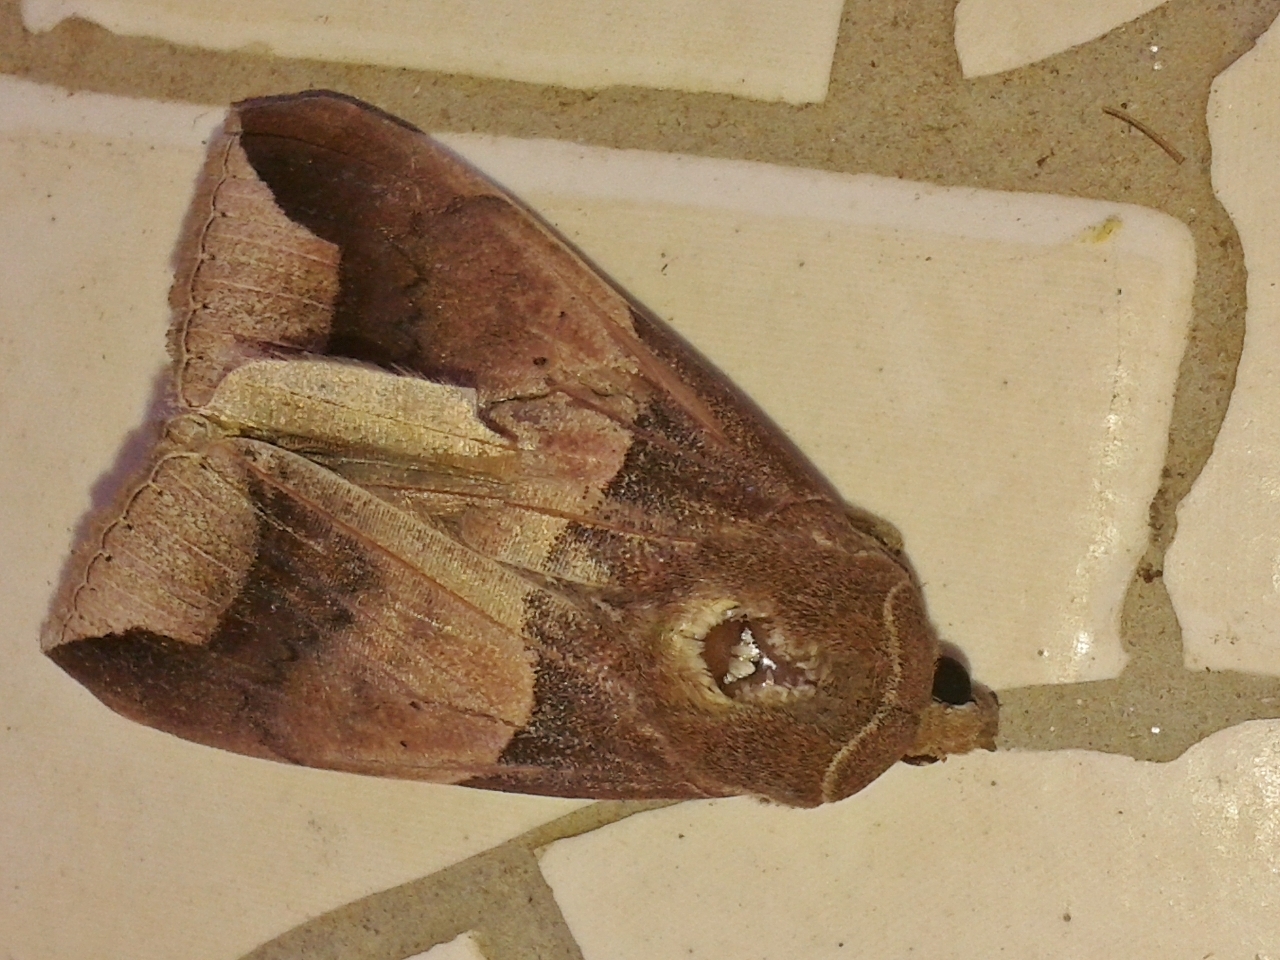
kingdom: Animalia
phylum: Arthropoda
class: Insecta
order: Lepidoptera
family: Erebidae
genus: Achaea
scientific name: Achaea echo
